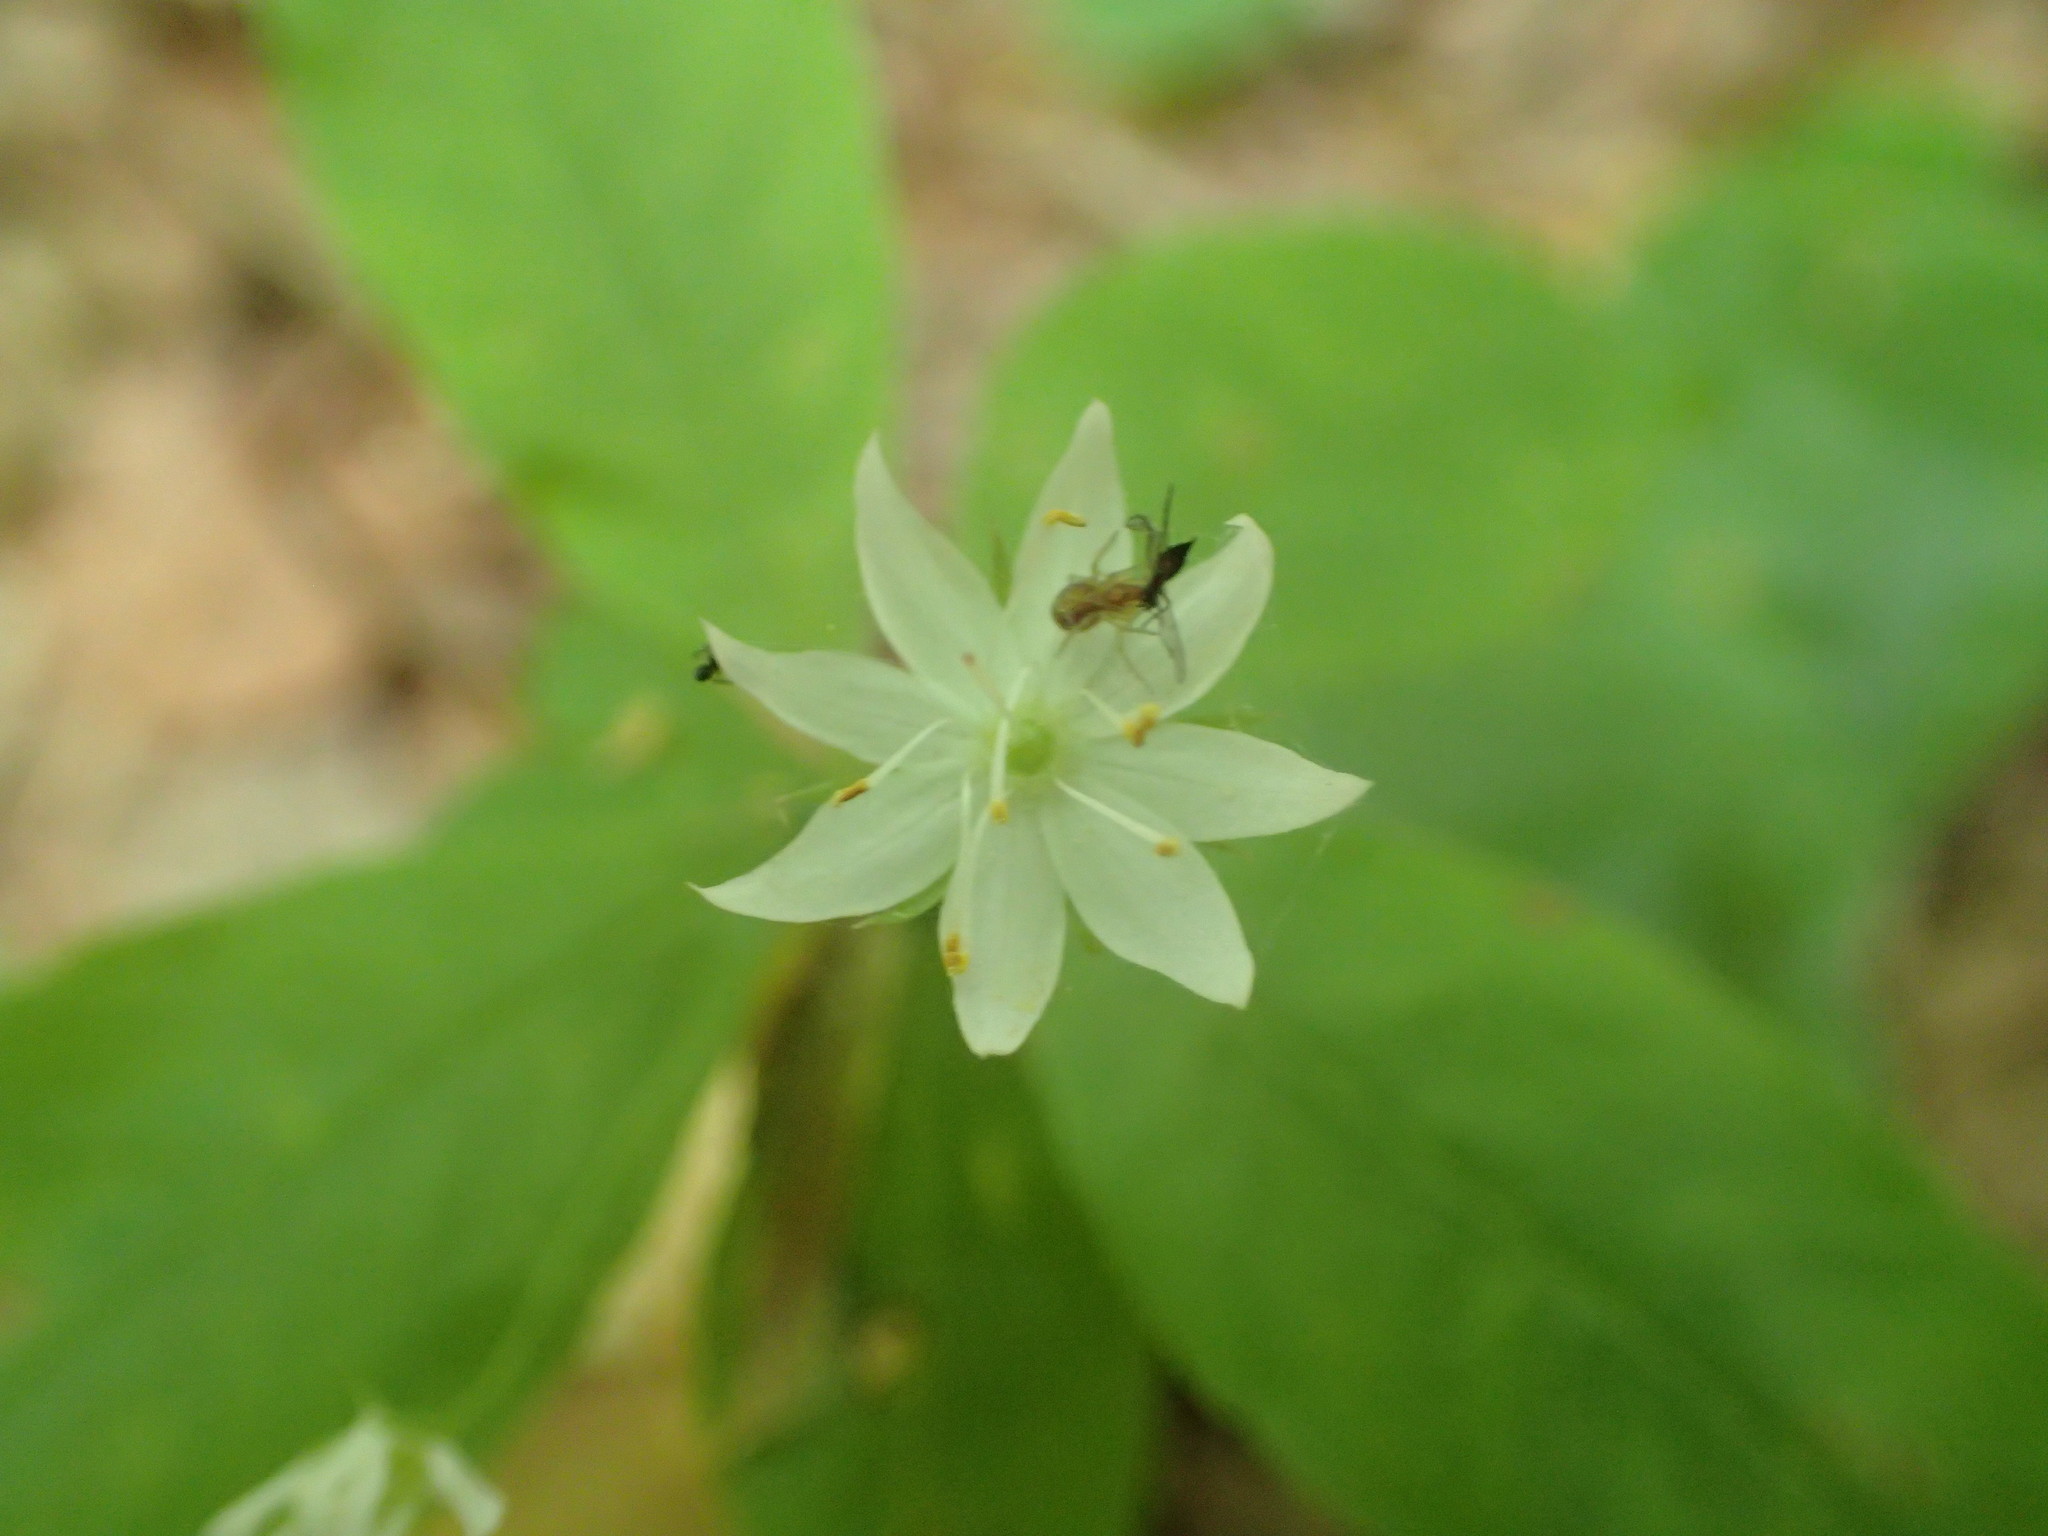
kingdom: Plantae
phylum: Tracheophyta
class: Magnoliopsida
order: Ericales
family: Primulaceae
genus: Lysimachia
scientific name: Lysimachia borealis
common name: American starflower
